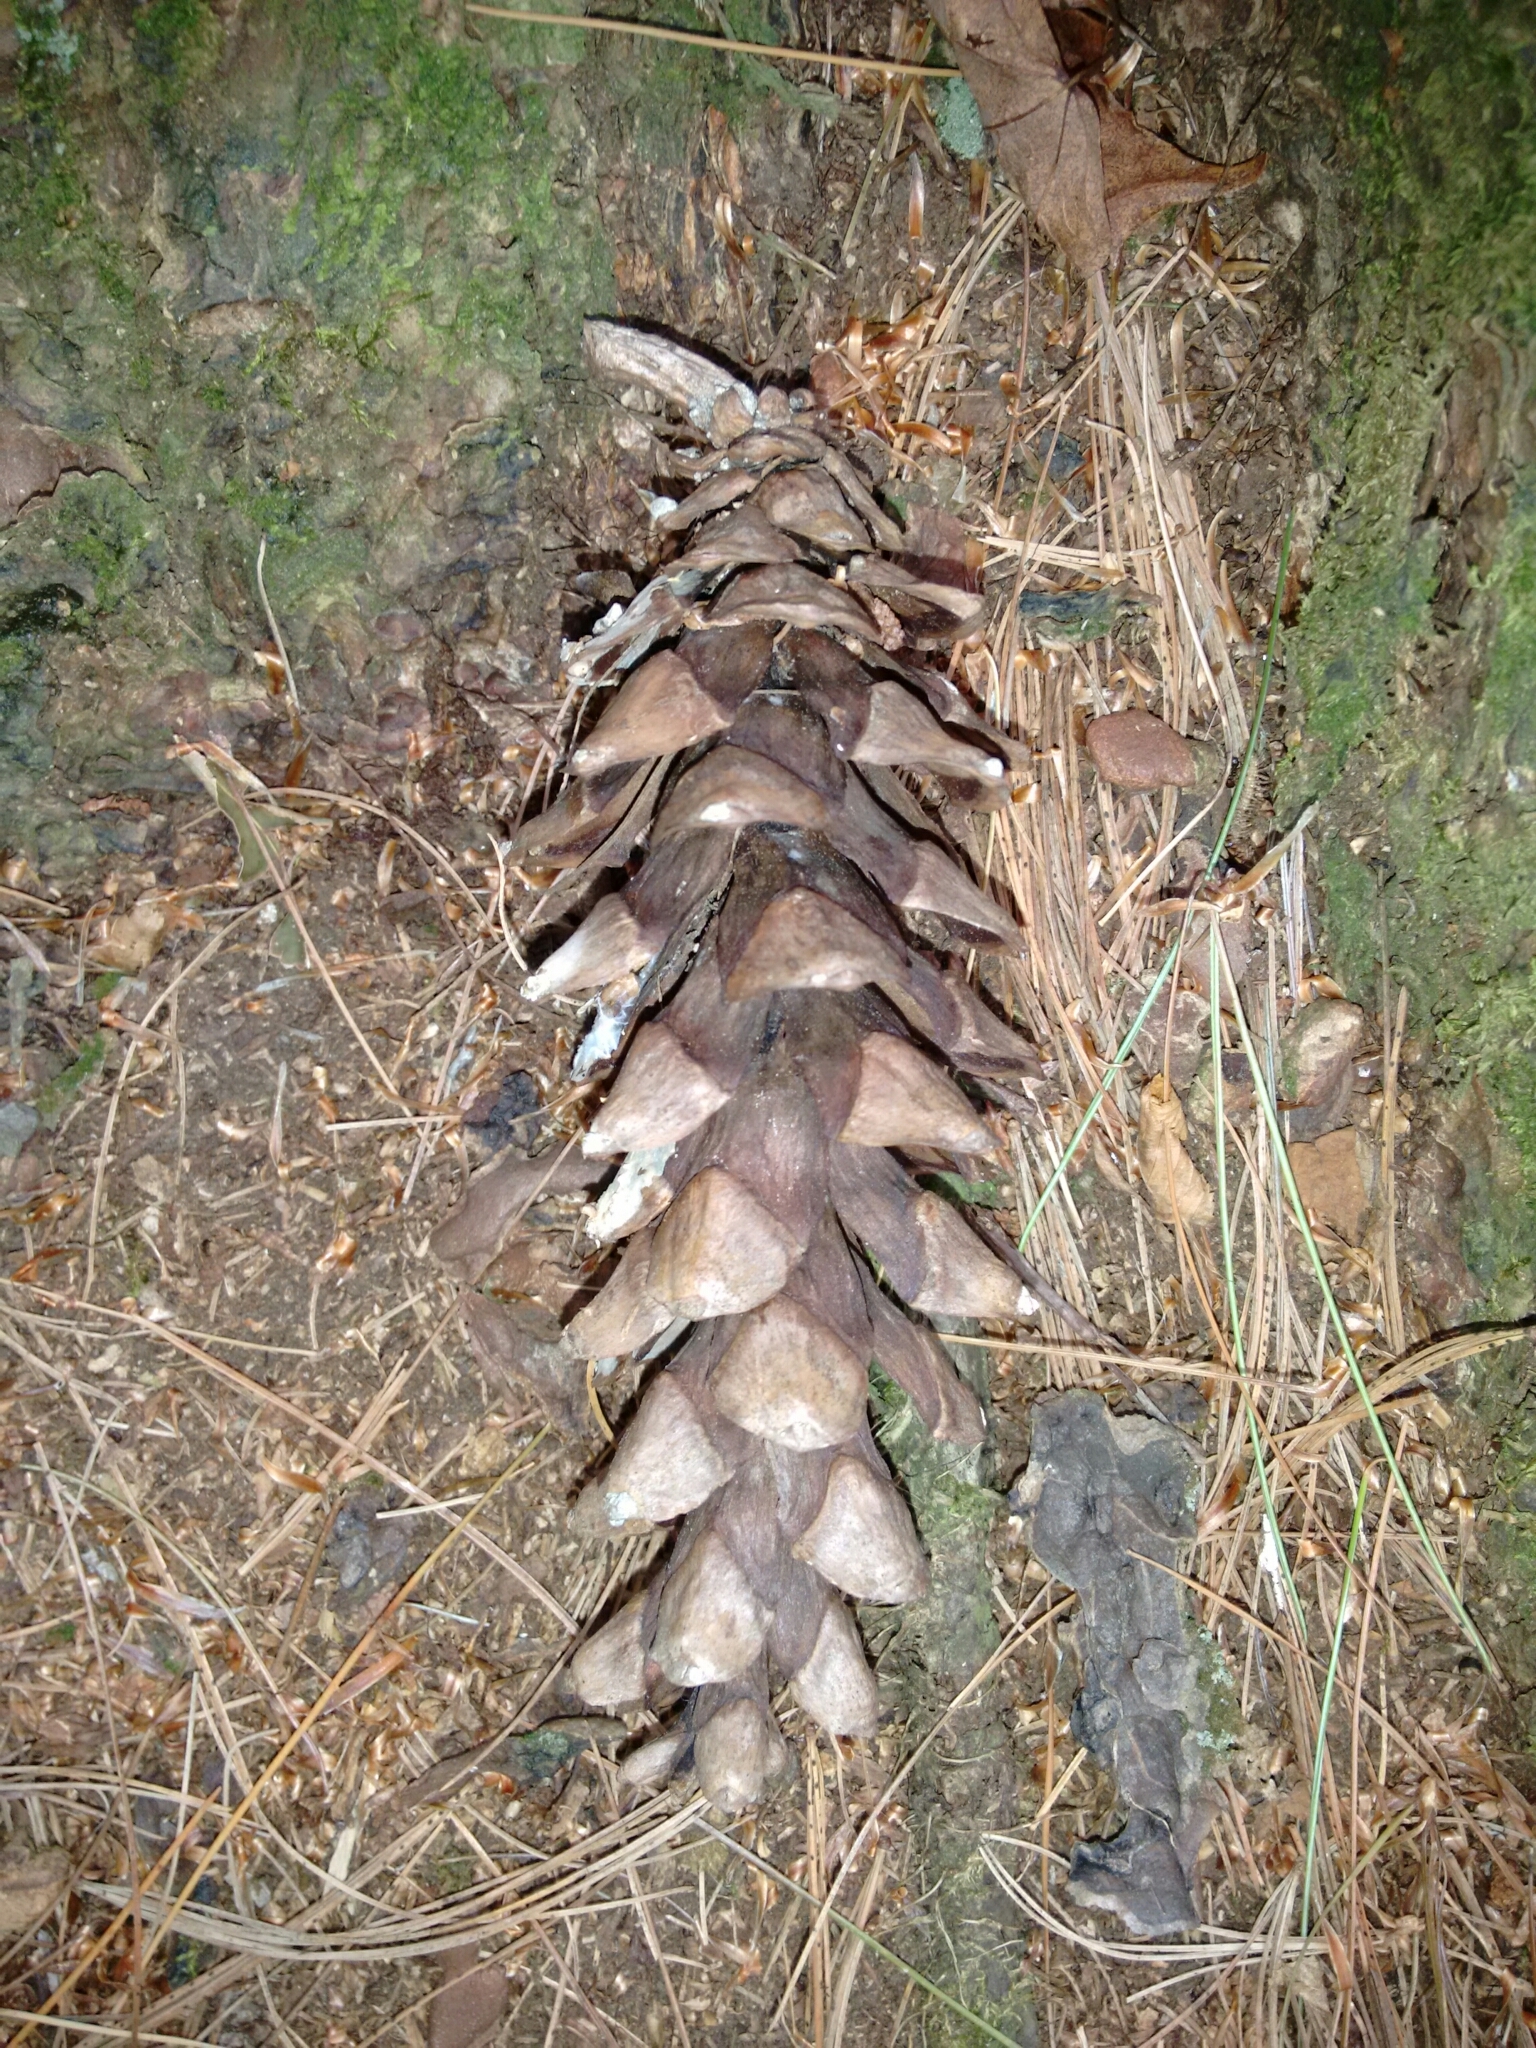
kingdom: Plantae
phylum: Tracheophyta
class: Pinopsida
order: Pinales
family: Pinaceae
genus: Pinus
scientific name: Pinus strobus
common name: Weymouth pine
